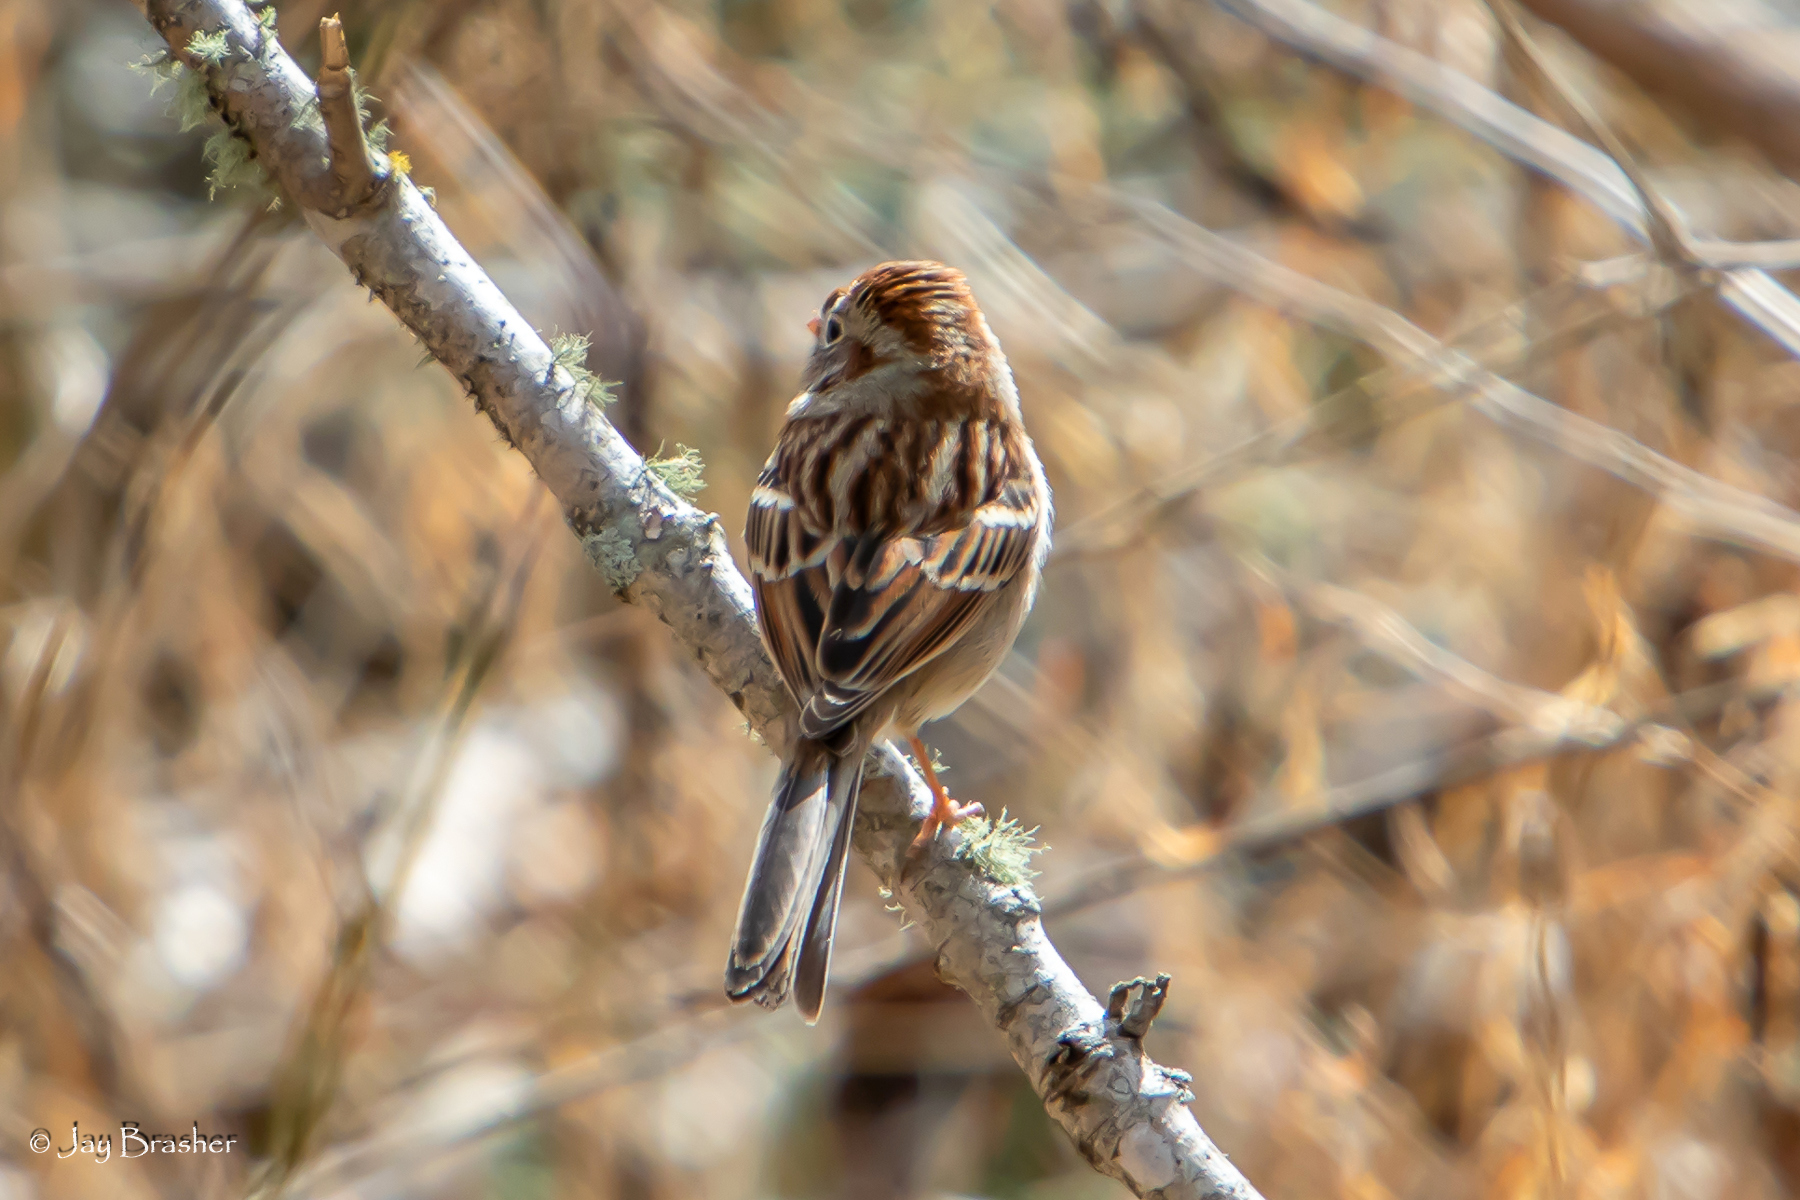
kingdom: Animalia
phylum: Chordata
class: Aves
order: Passeriformes
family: Passerellidae
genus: Spizella
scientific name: Spizella pusilla
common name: Field sparrow
